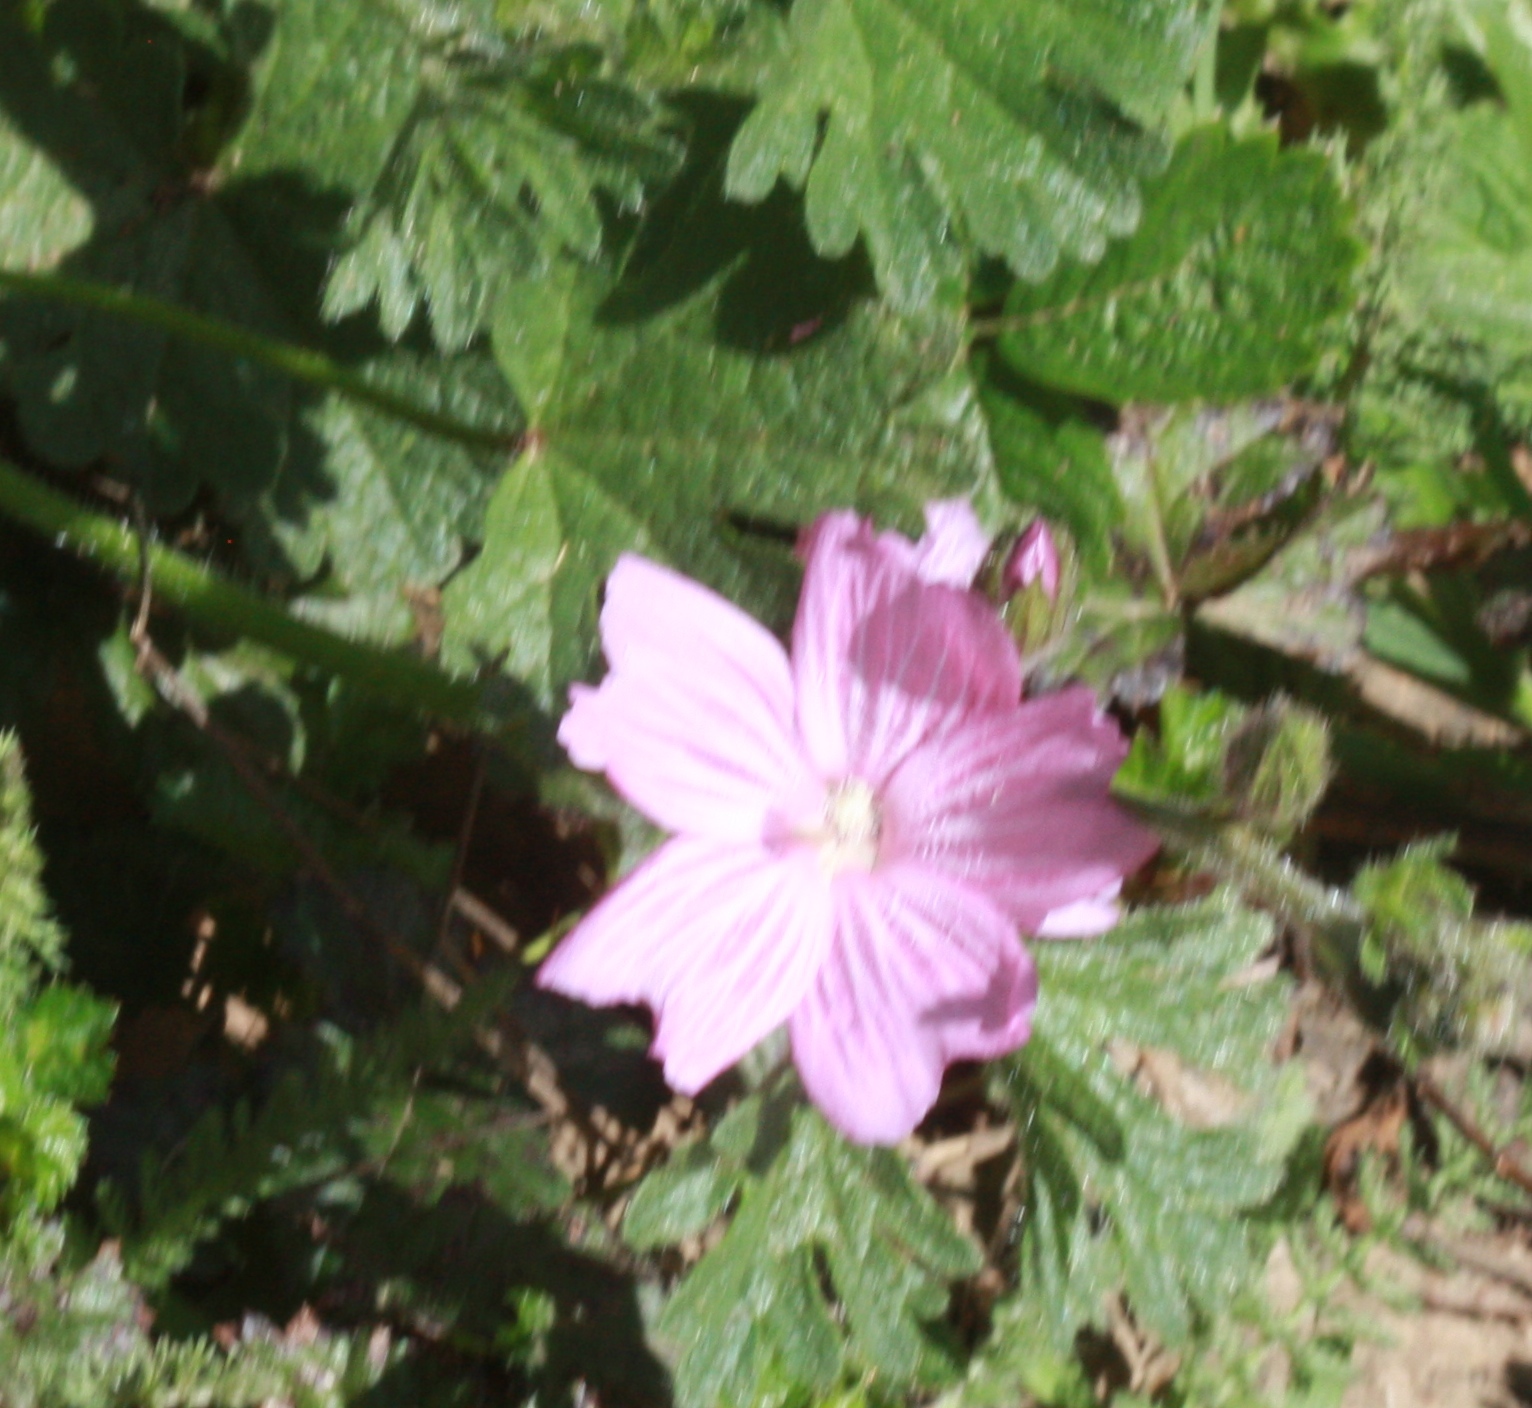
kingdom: Plantae
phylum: Tracheophyta
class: Magnoliopsida
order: Malvales
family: Malvaceae
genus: Sidalcea
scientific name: Sidalcea malviflora
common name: Greek mallow
